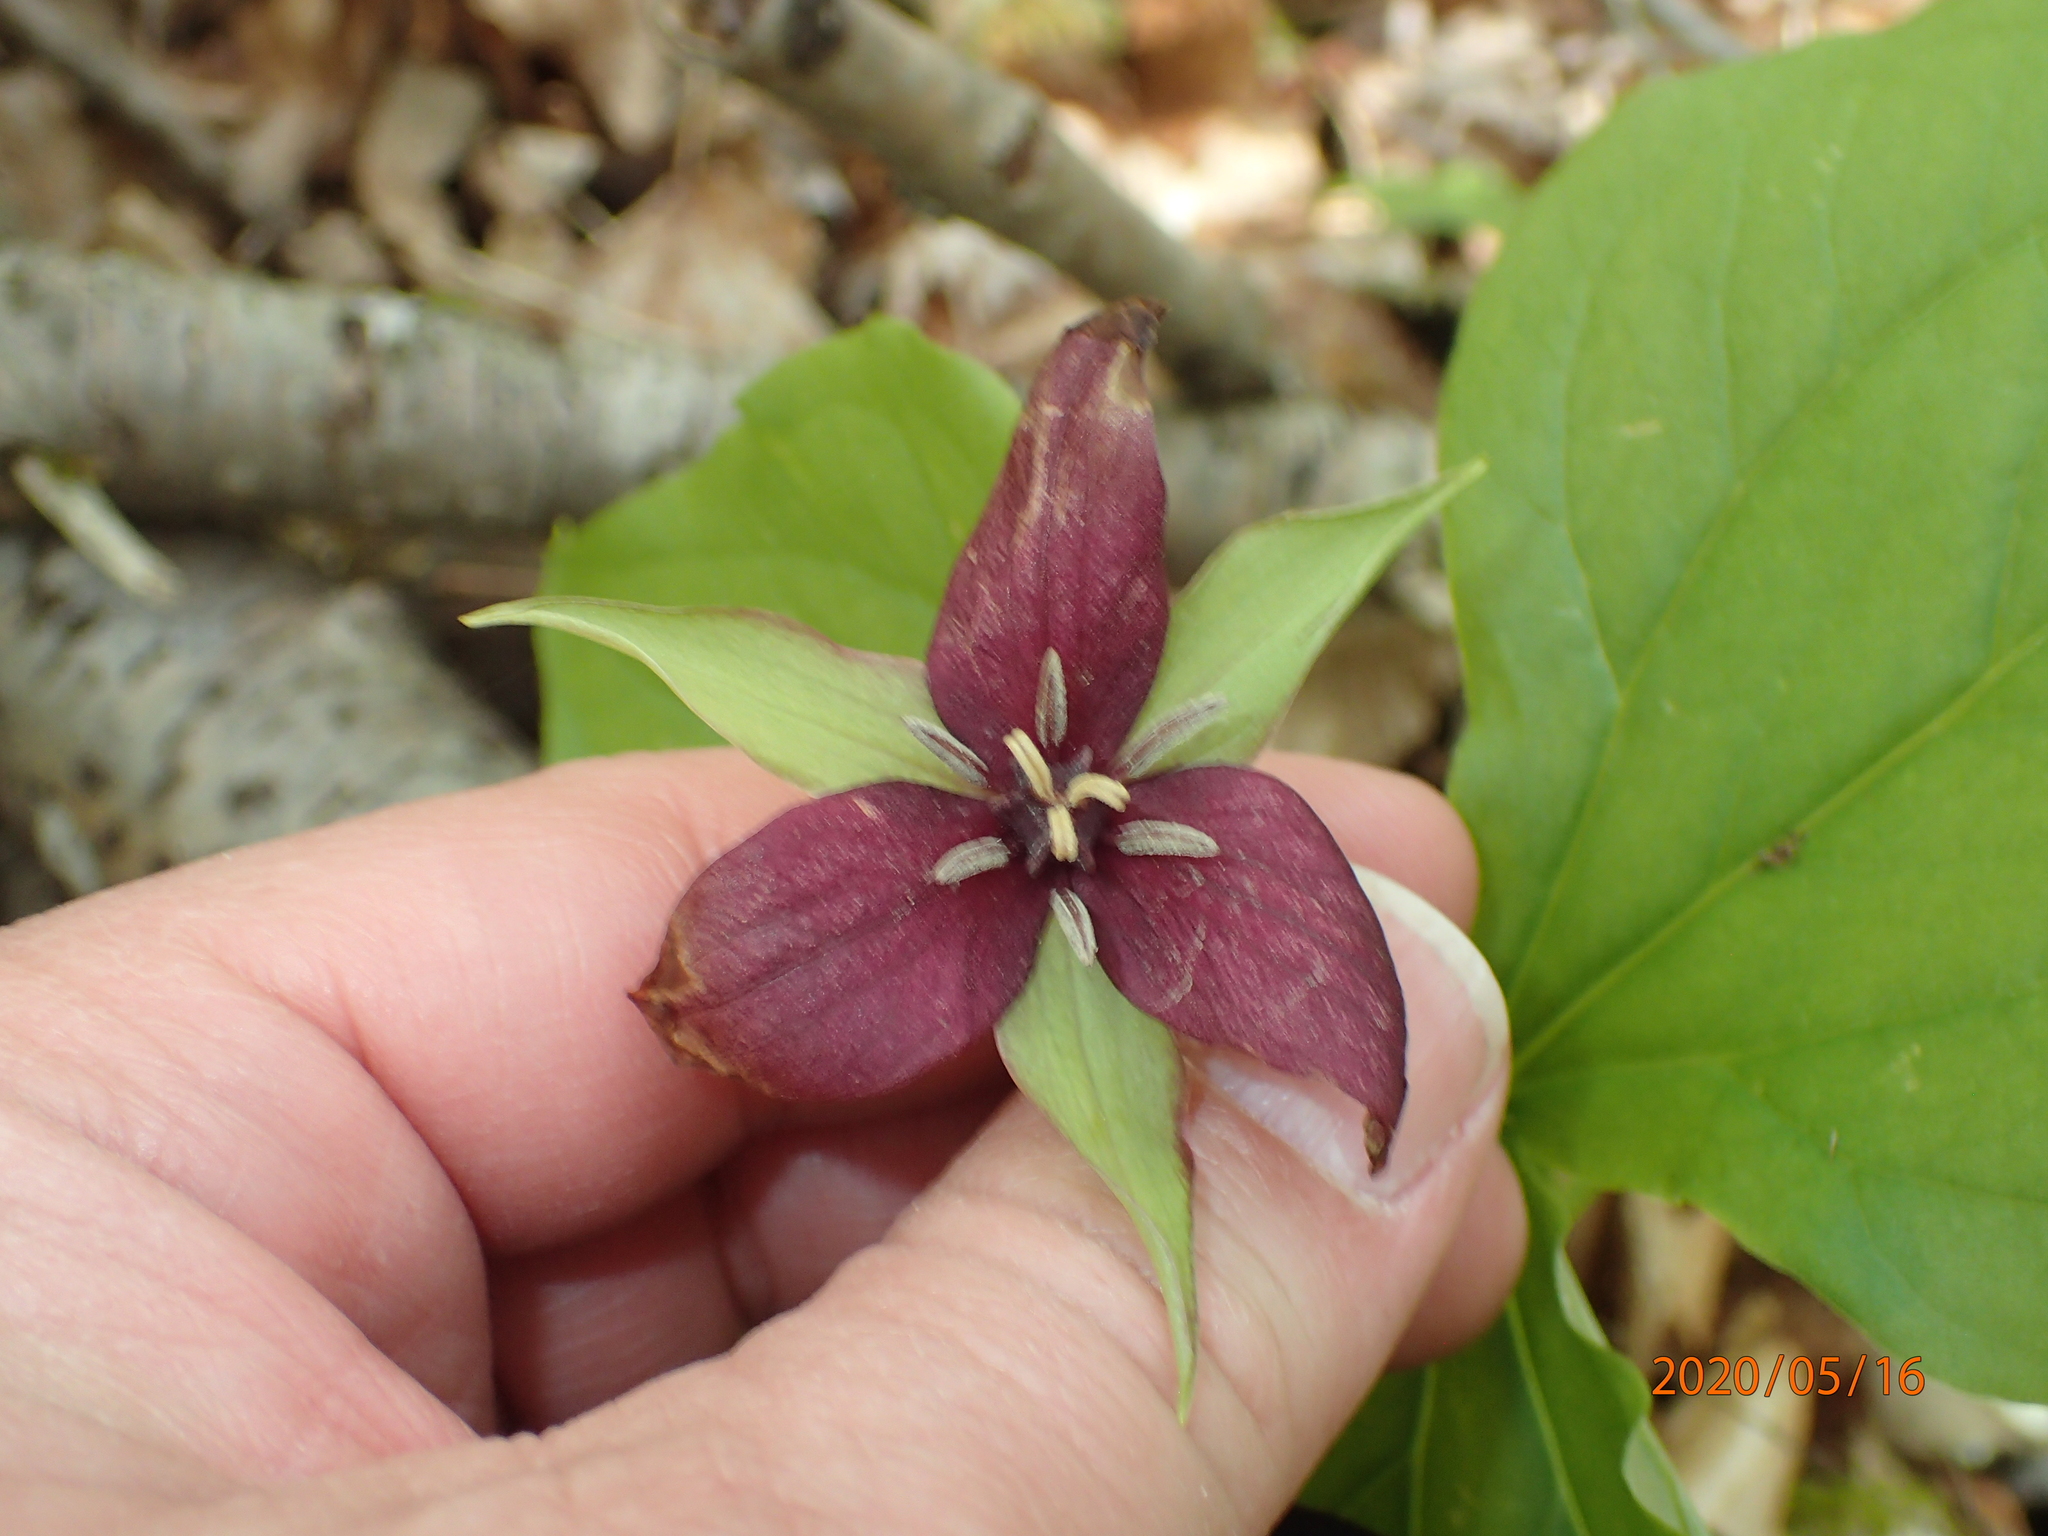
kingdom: Plantae
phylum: Tracheophyta
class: Liliopsida
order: Liliales
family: Melanthiaceae
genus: Trillium
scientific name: Trillium erectum
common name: Purple trillium
